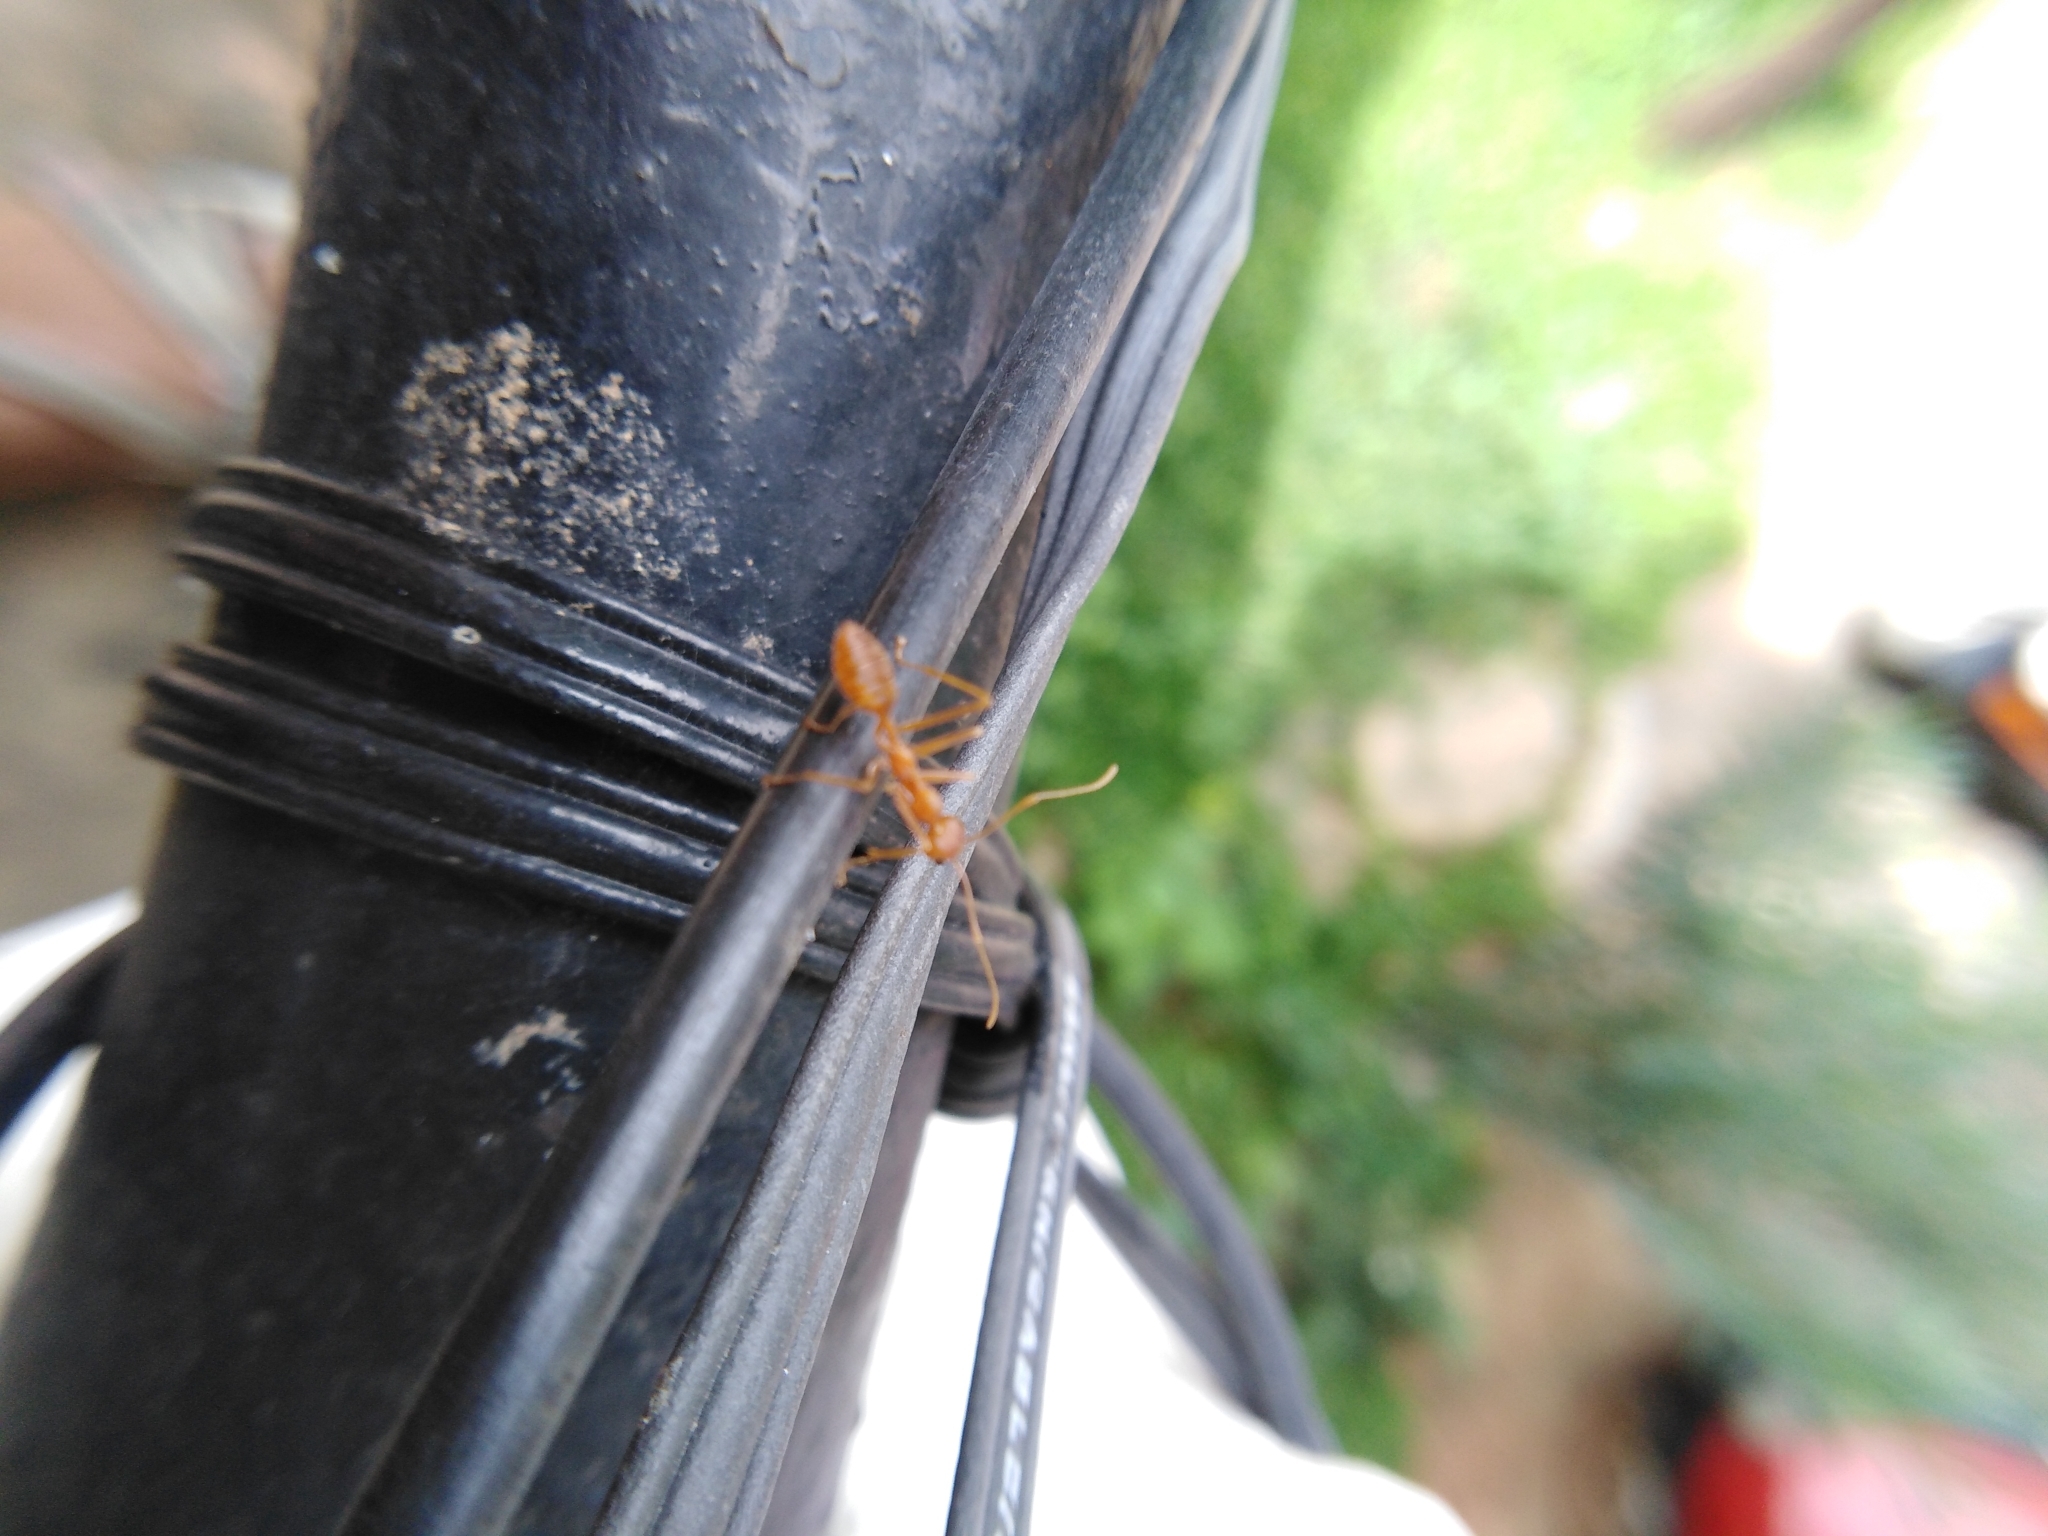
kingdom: Animalia
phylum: Arthropoda
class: Insecta
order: Hymenoptera
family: Formicidae
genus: Oecophylla
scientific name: Oecophylla smaragdina
